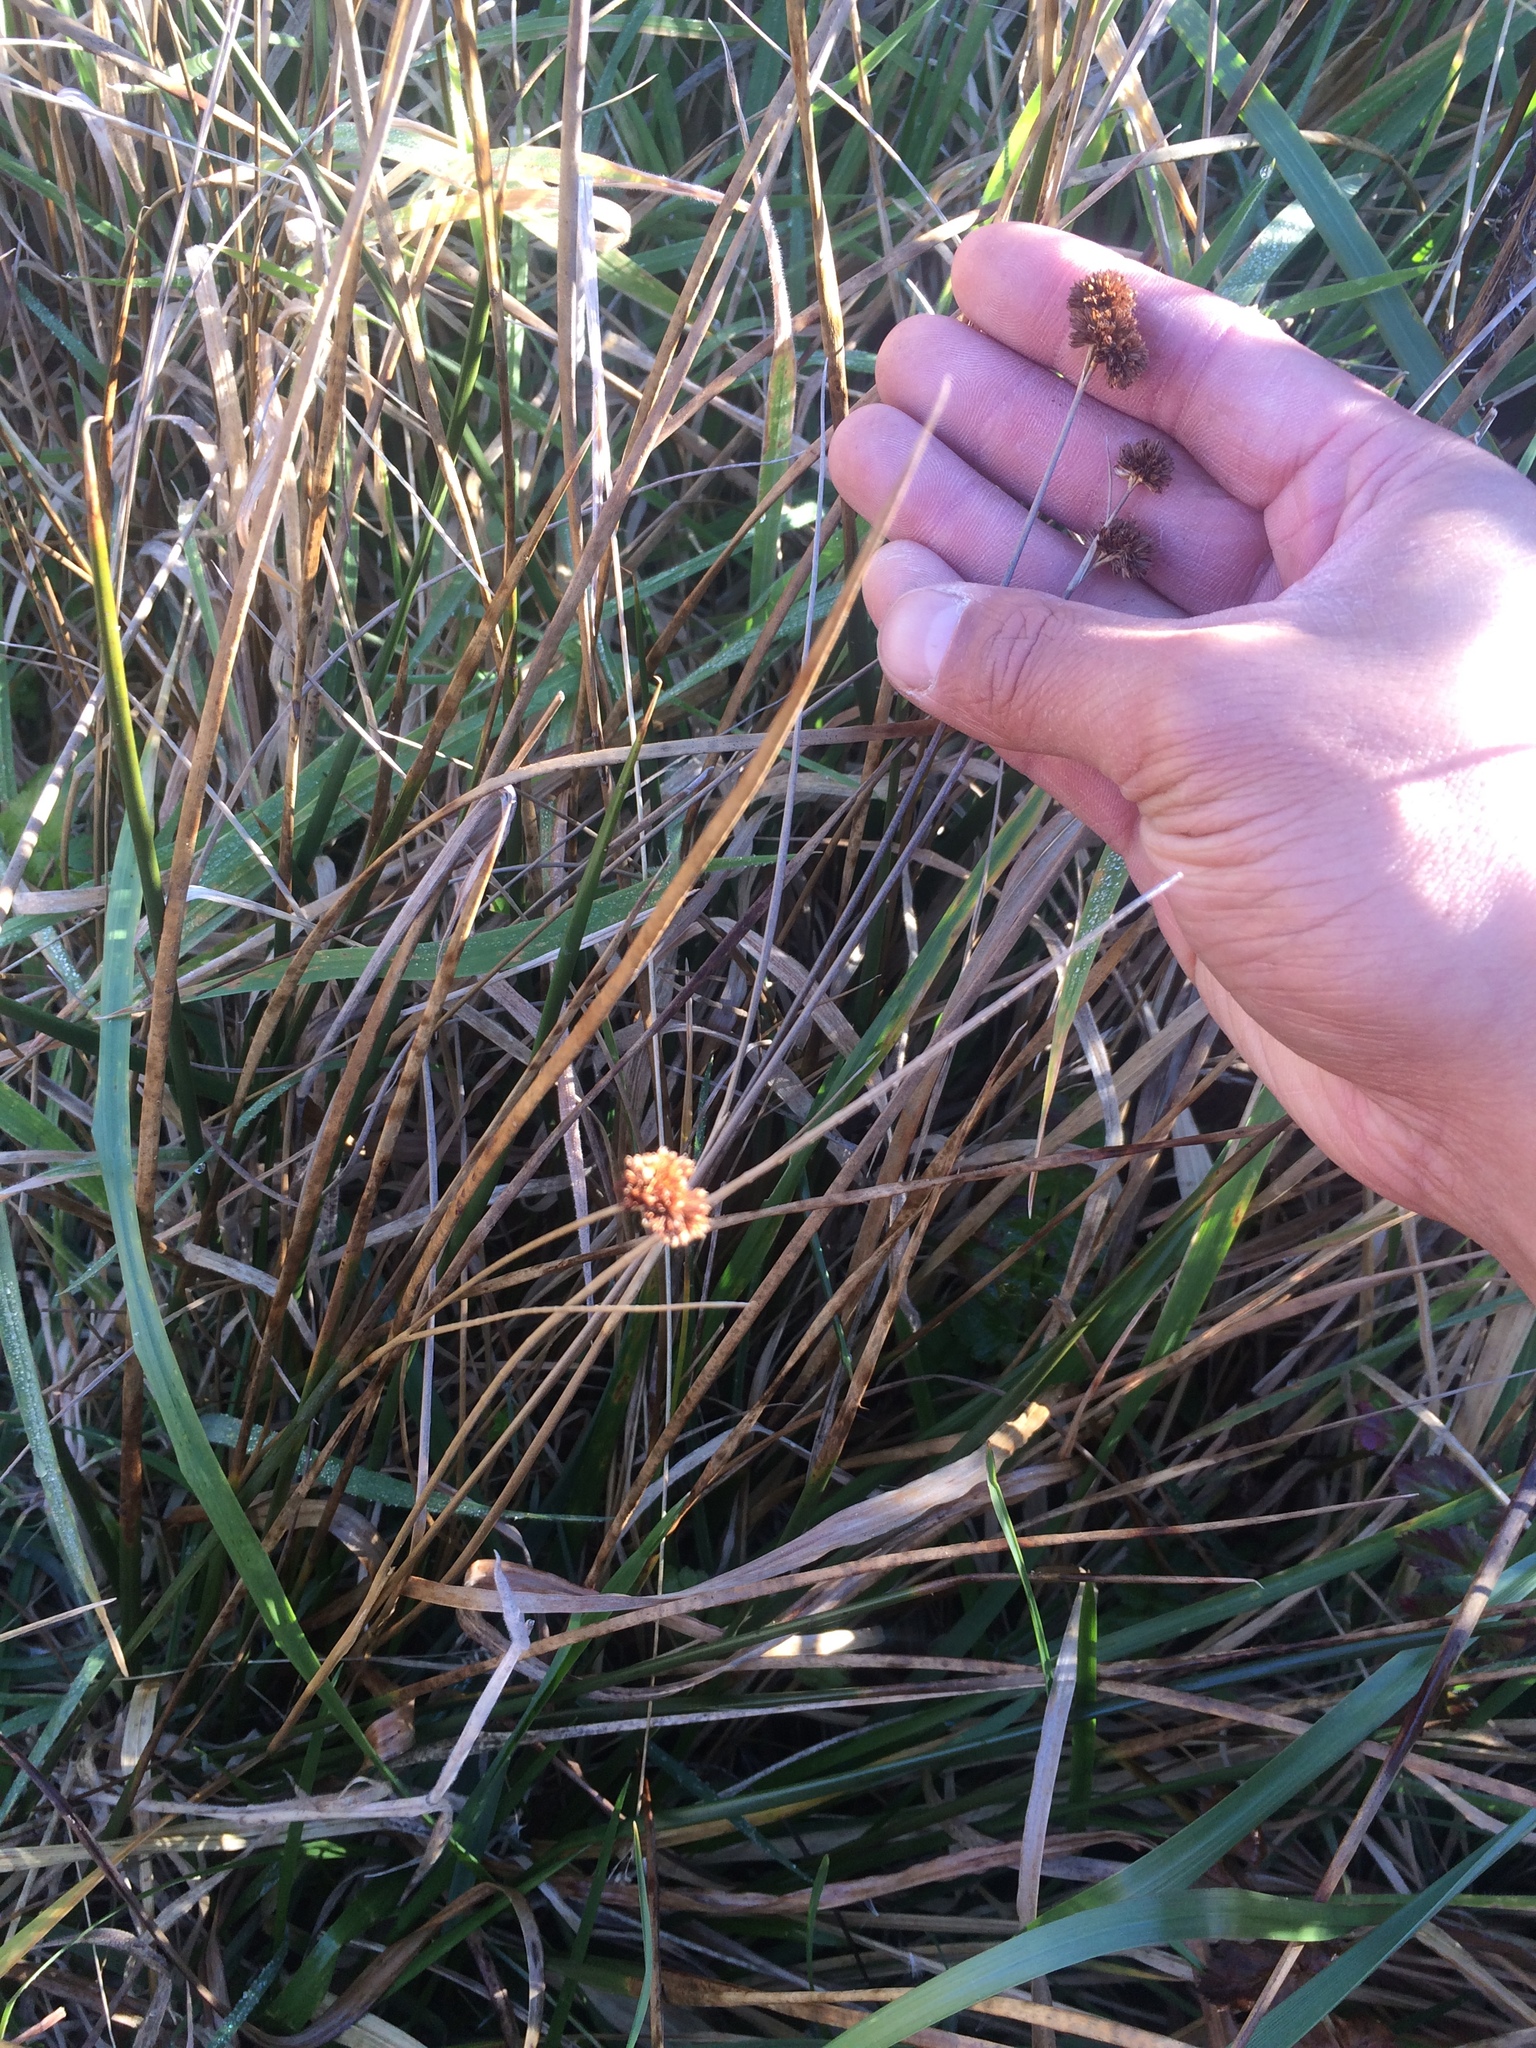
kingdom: Plantae
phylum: Tracheophyta
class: Liliopsida
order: Poales
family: Juncaceae
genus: Juncus
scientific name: Juncus bolanderi
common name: Bolander's rush
